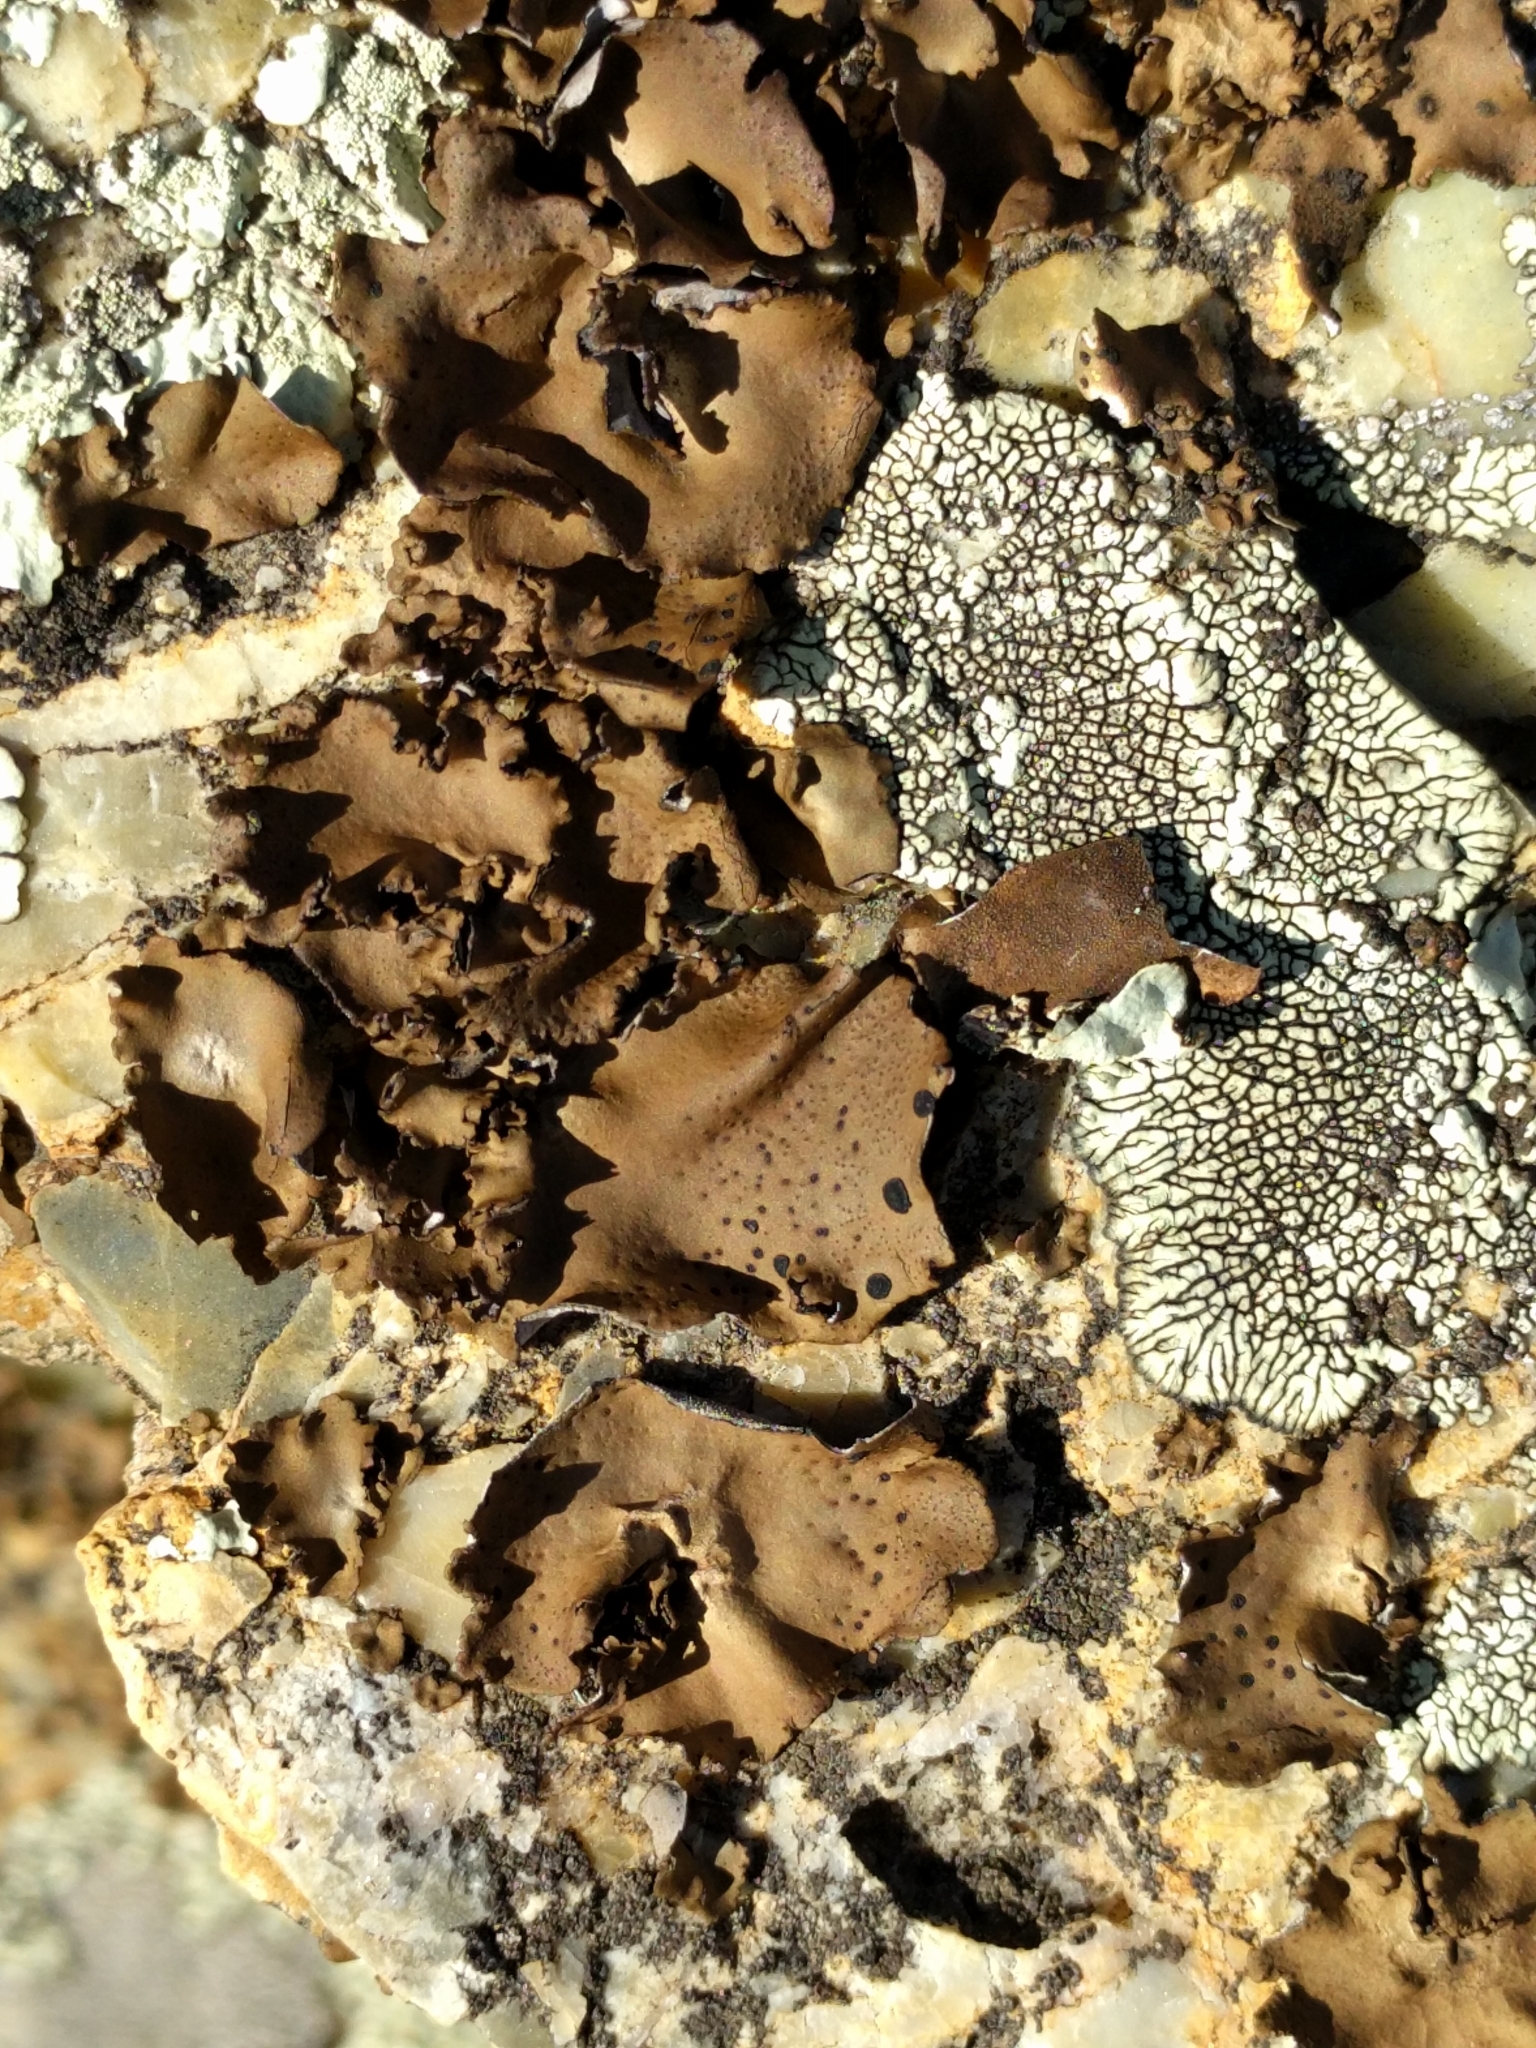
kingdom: Fungi
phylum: Ascomycota
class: Lecanoromycetes
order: Umbilicariales
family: Umbilicariaceae
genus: Umbilicaria
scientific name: Umbilicaria phaea
